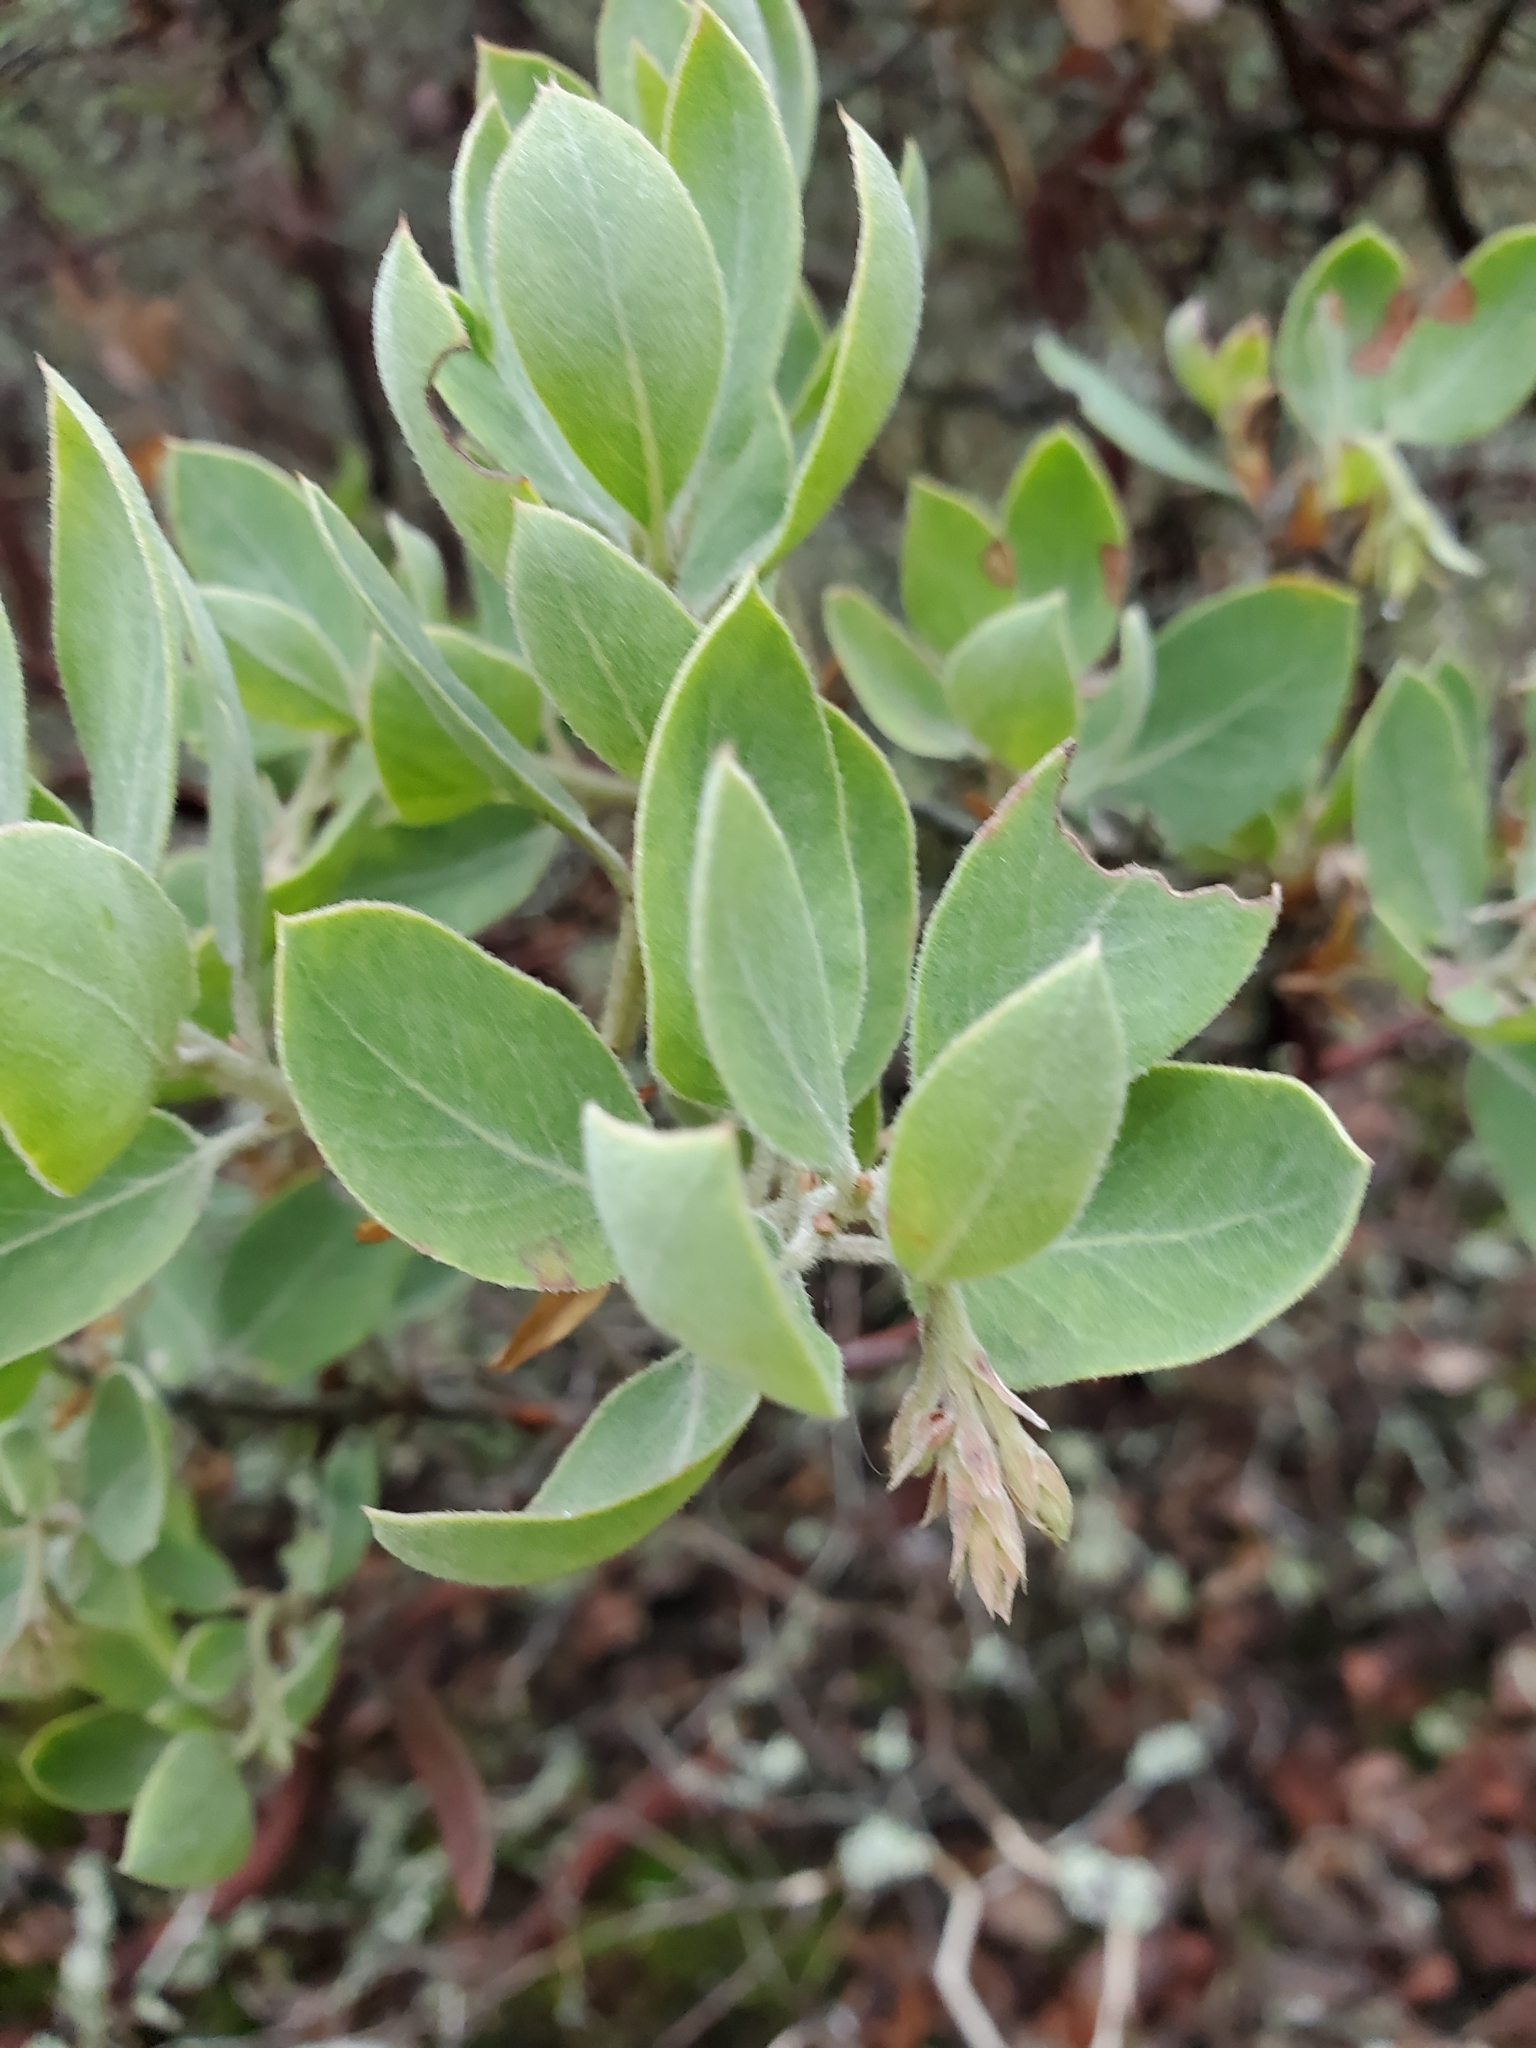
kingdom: Plantae
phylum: Tracheophyta
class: Magnoliopsida
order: Ericales
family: Ericaceae
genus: Arctostaphylos
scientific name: Arctostaphylos columbiana
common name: Bristly bearberry
